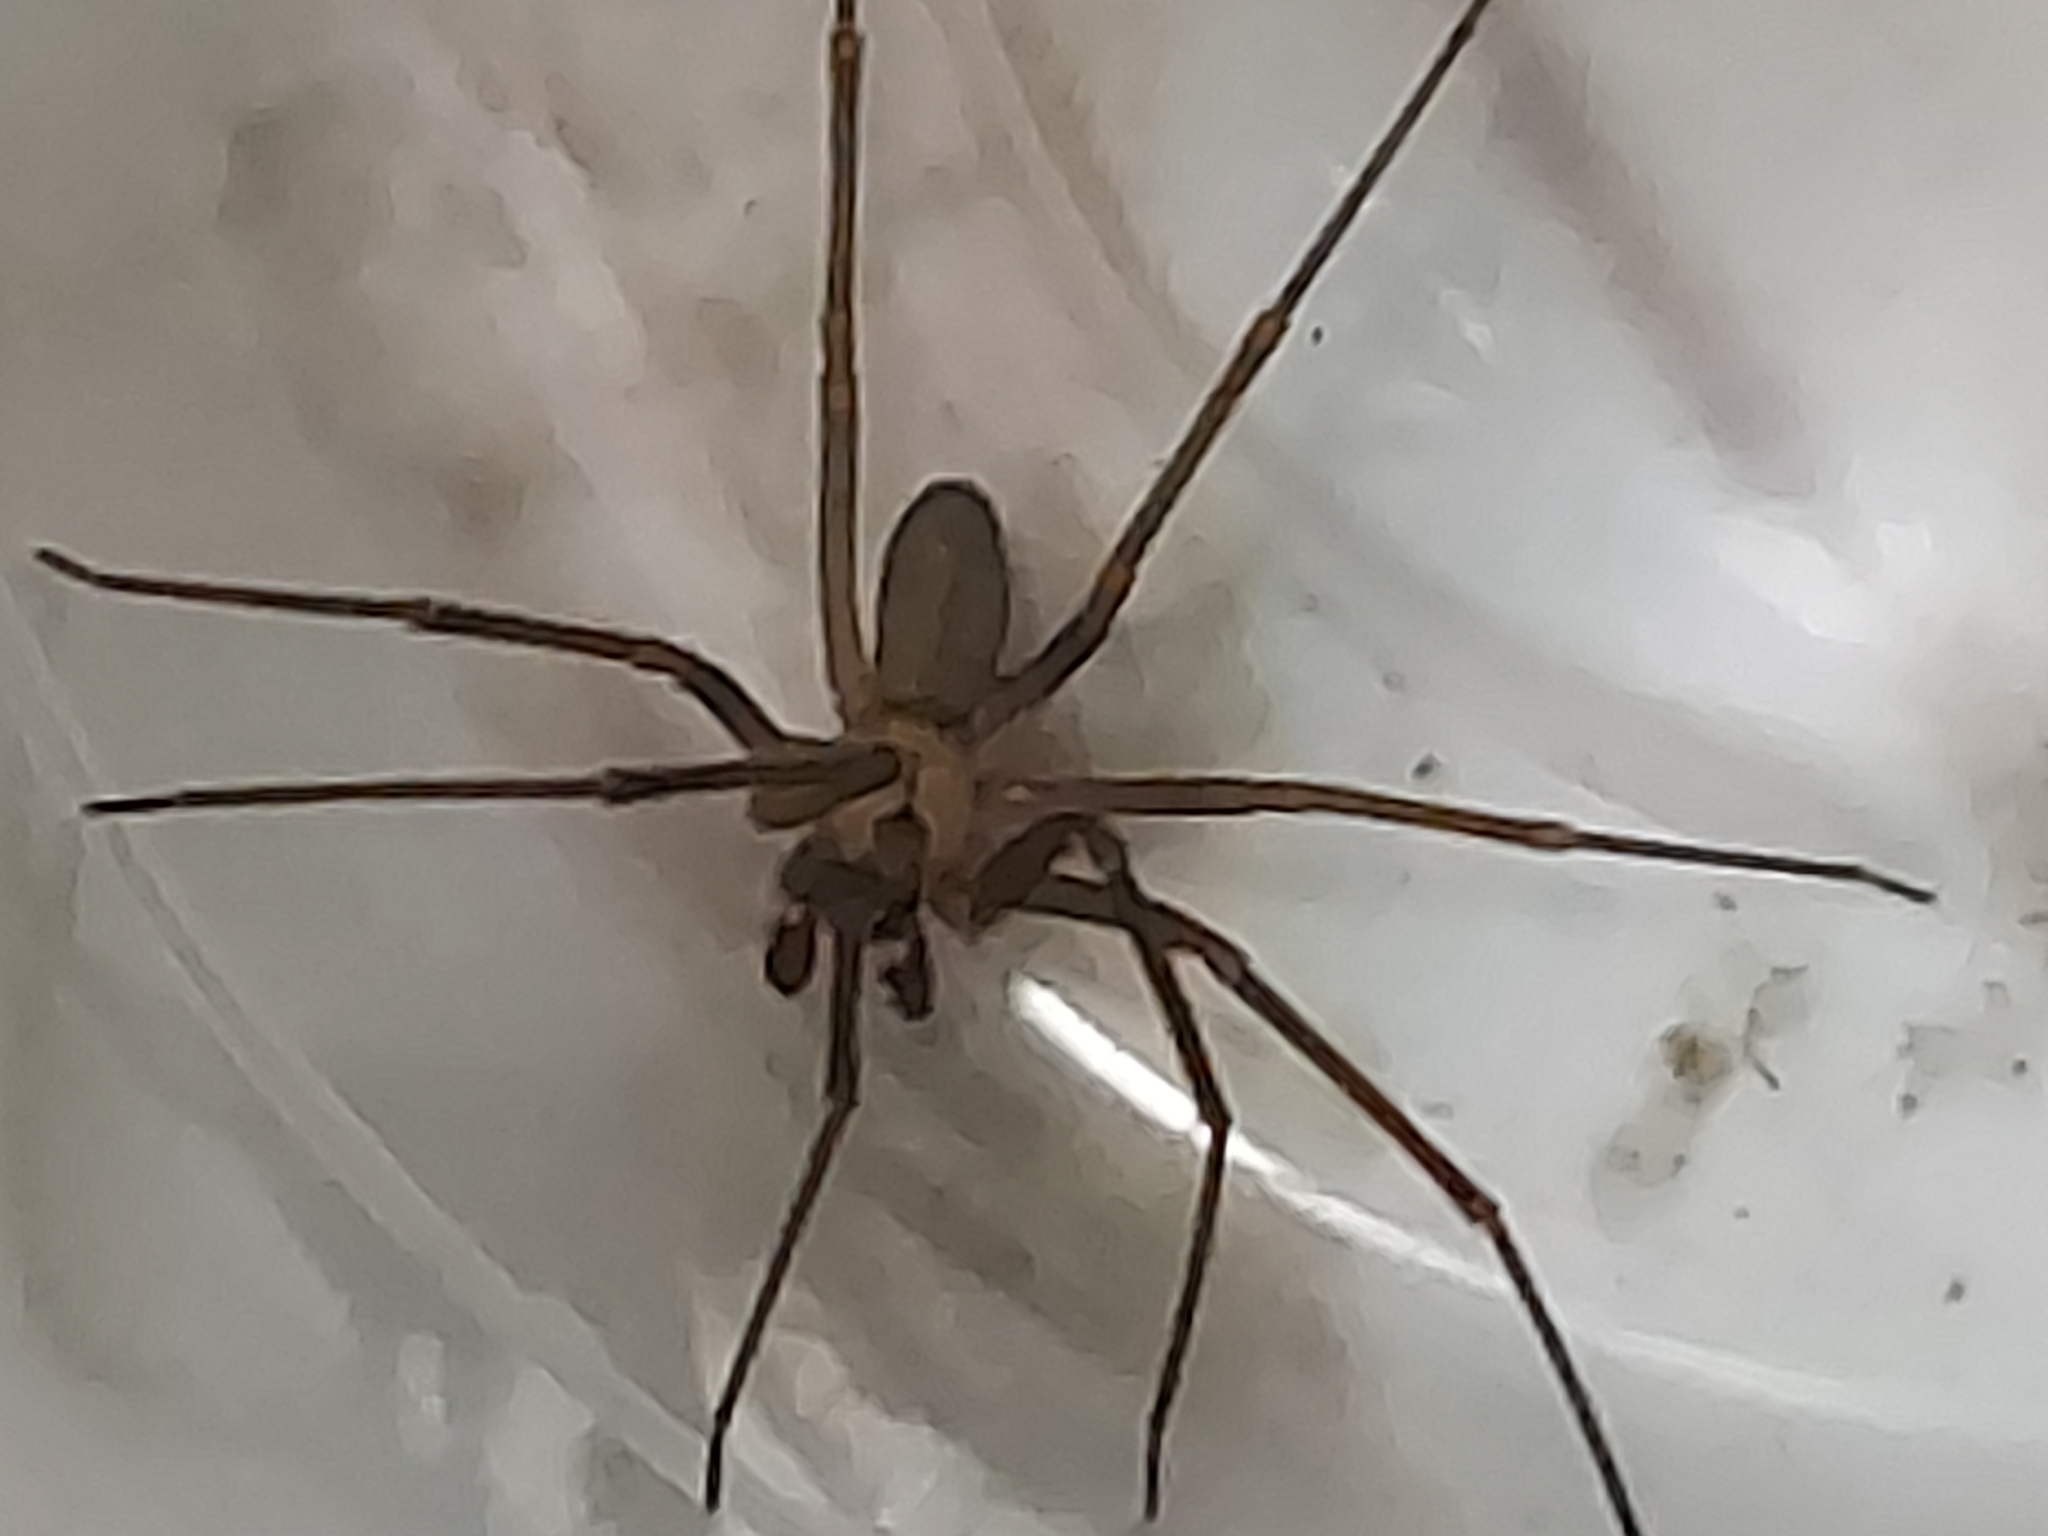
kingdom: Animalia
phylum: Arthropoda
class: Arachnida
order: Araneae
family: Sicariidae
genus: Loxosceles
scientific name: Loxosceles reclusa
